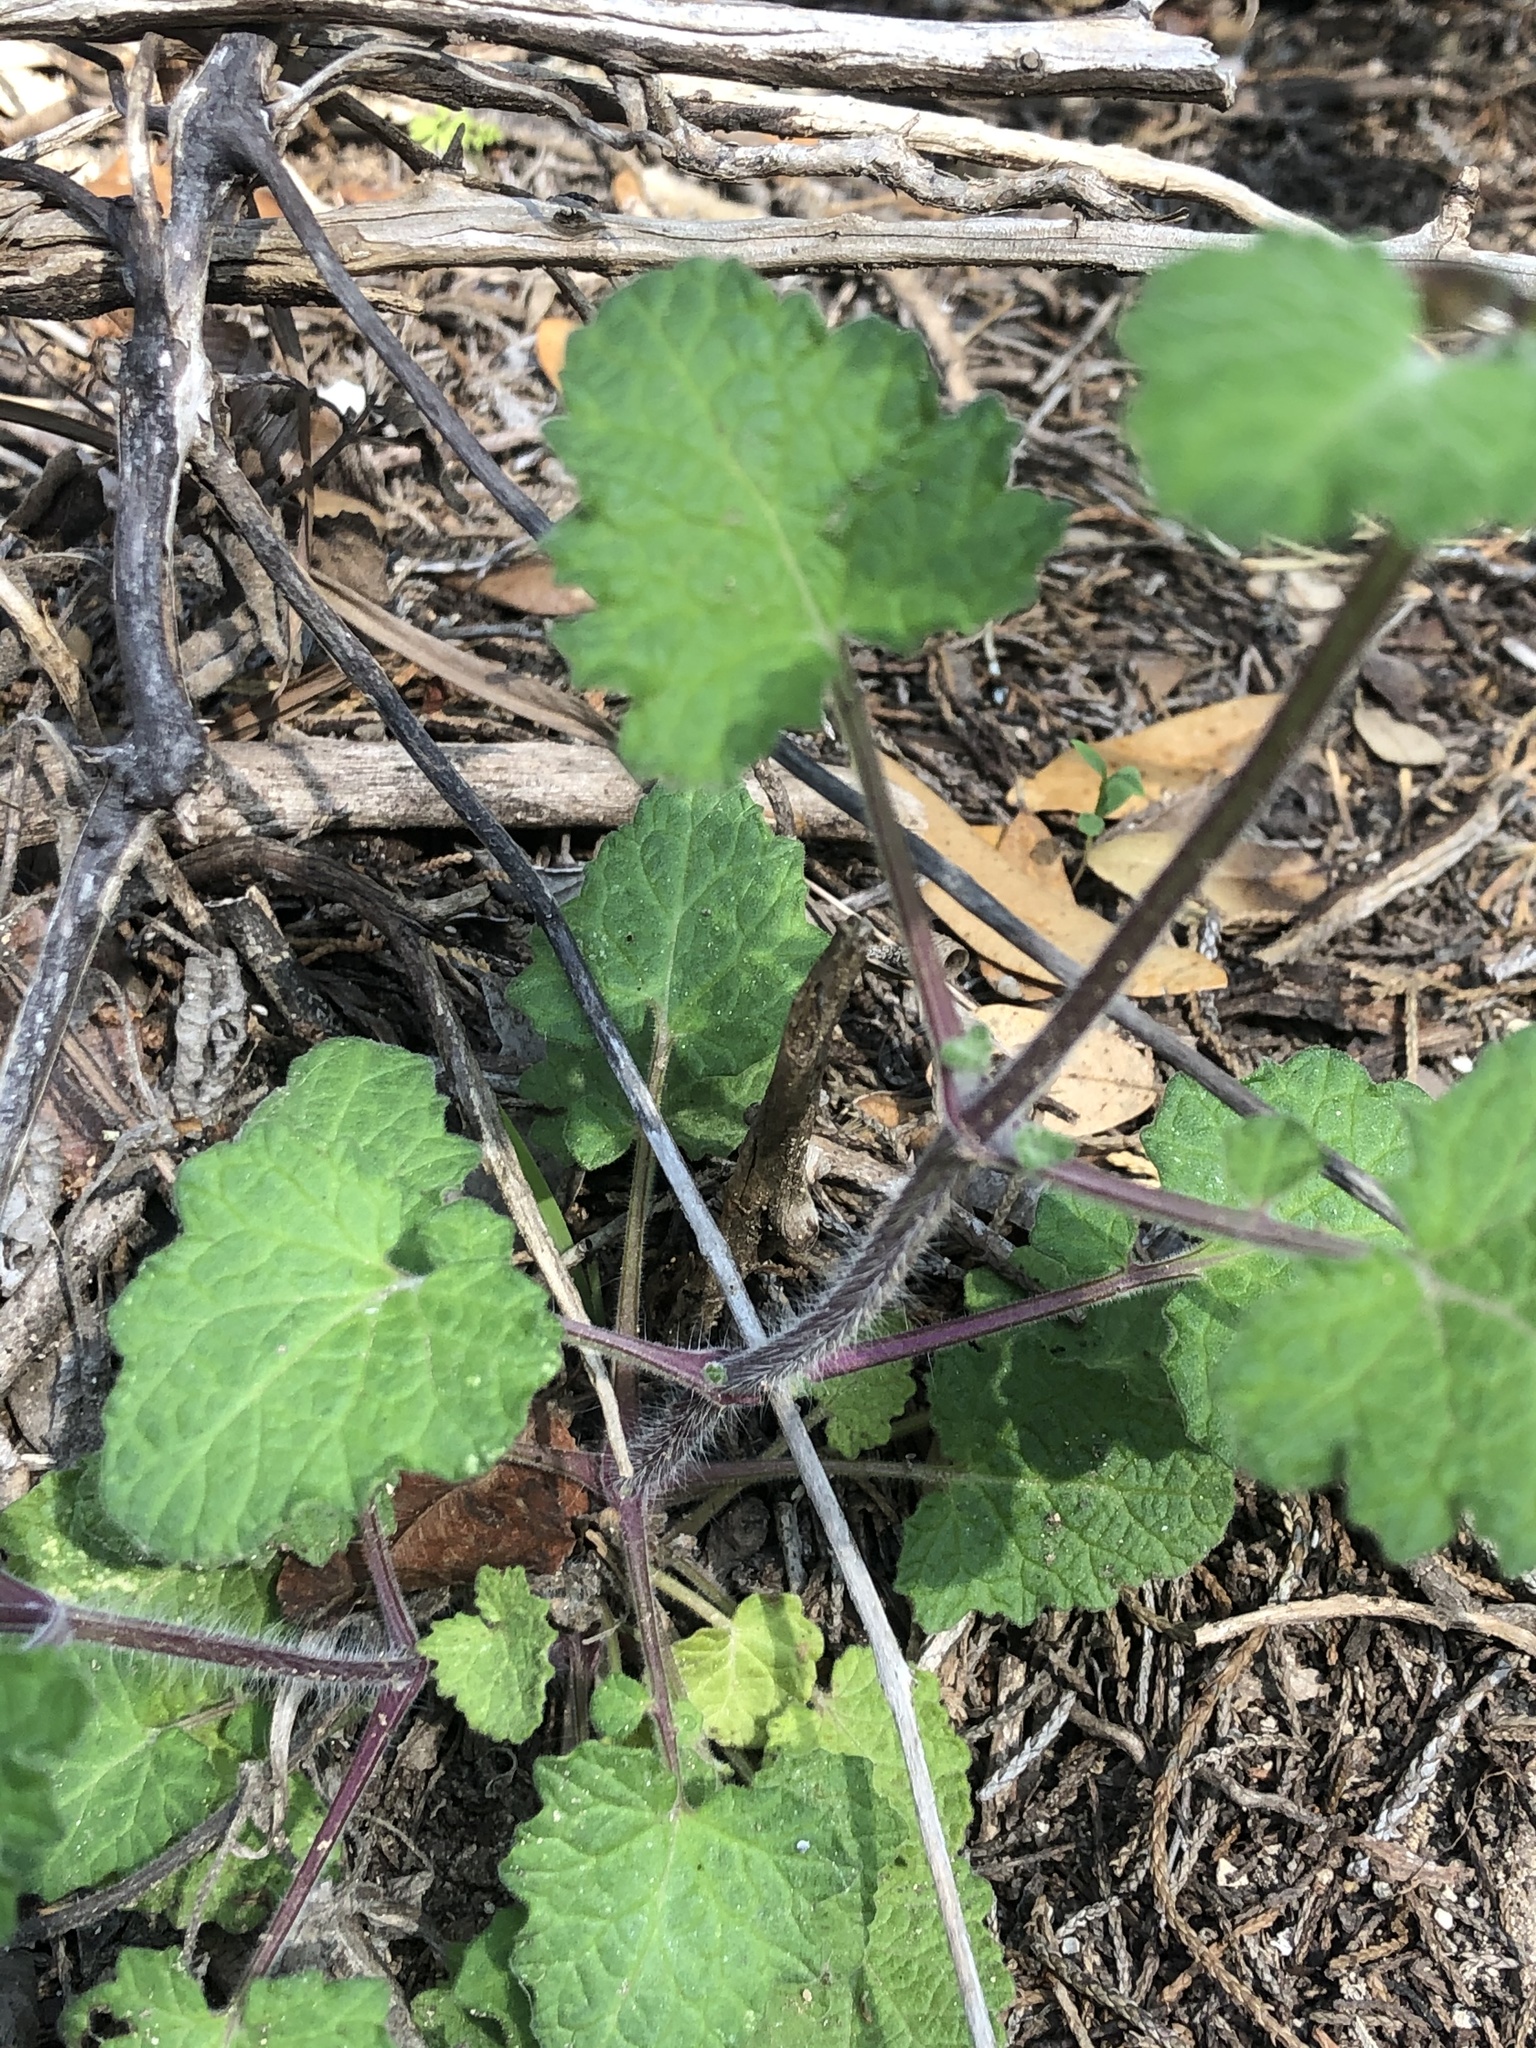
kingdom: Plantae
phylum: Tracheophyta
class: Magnoliopsida
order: Lamiales
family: Lamiaceae
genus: Salvia
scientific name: Salvia roemeriana
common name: Cedar sage
